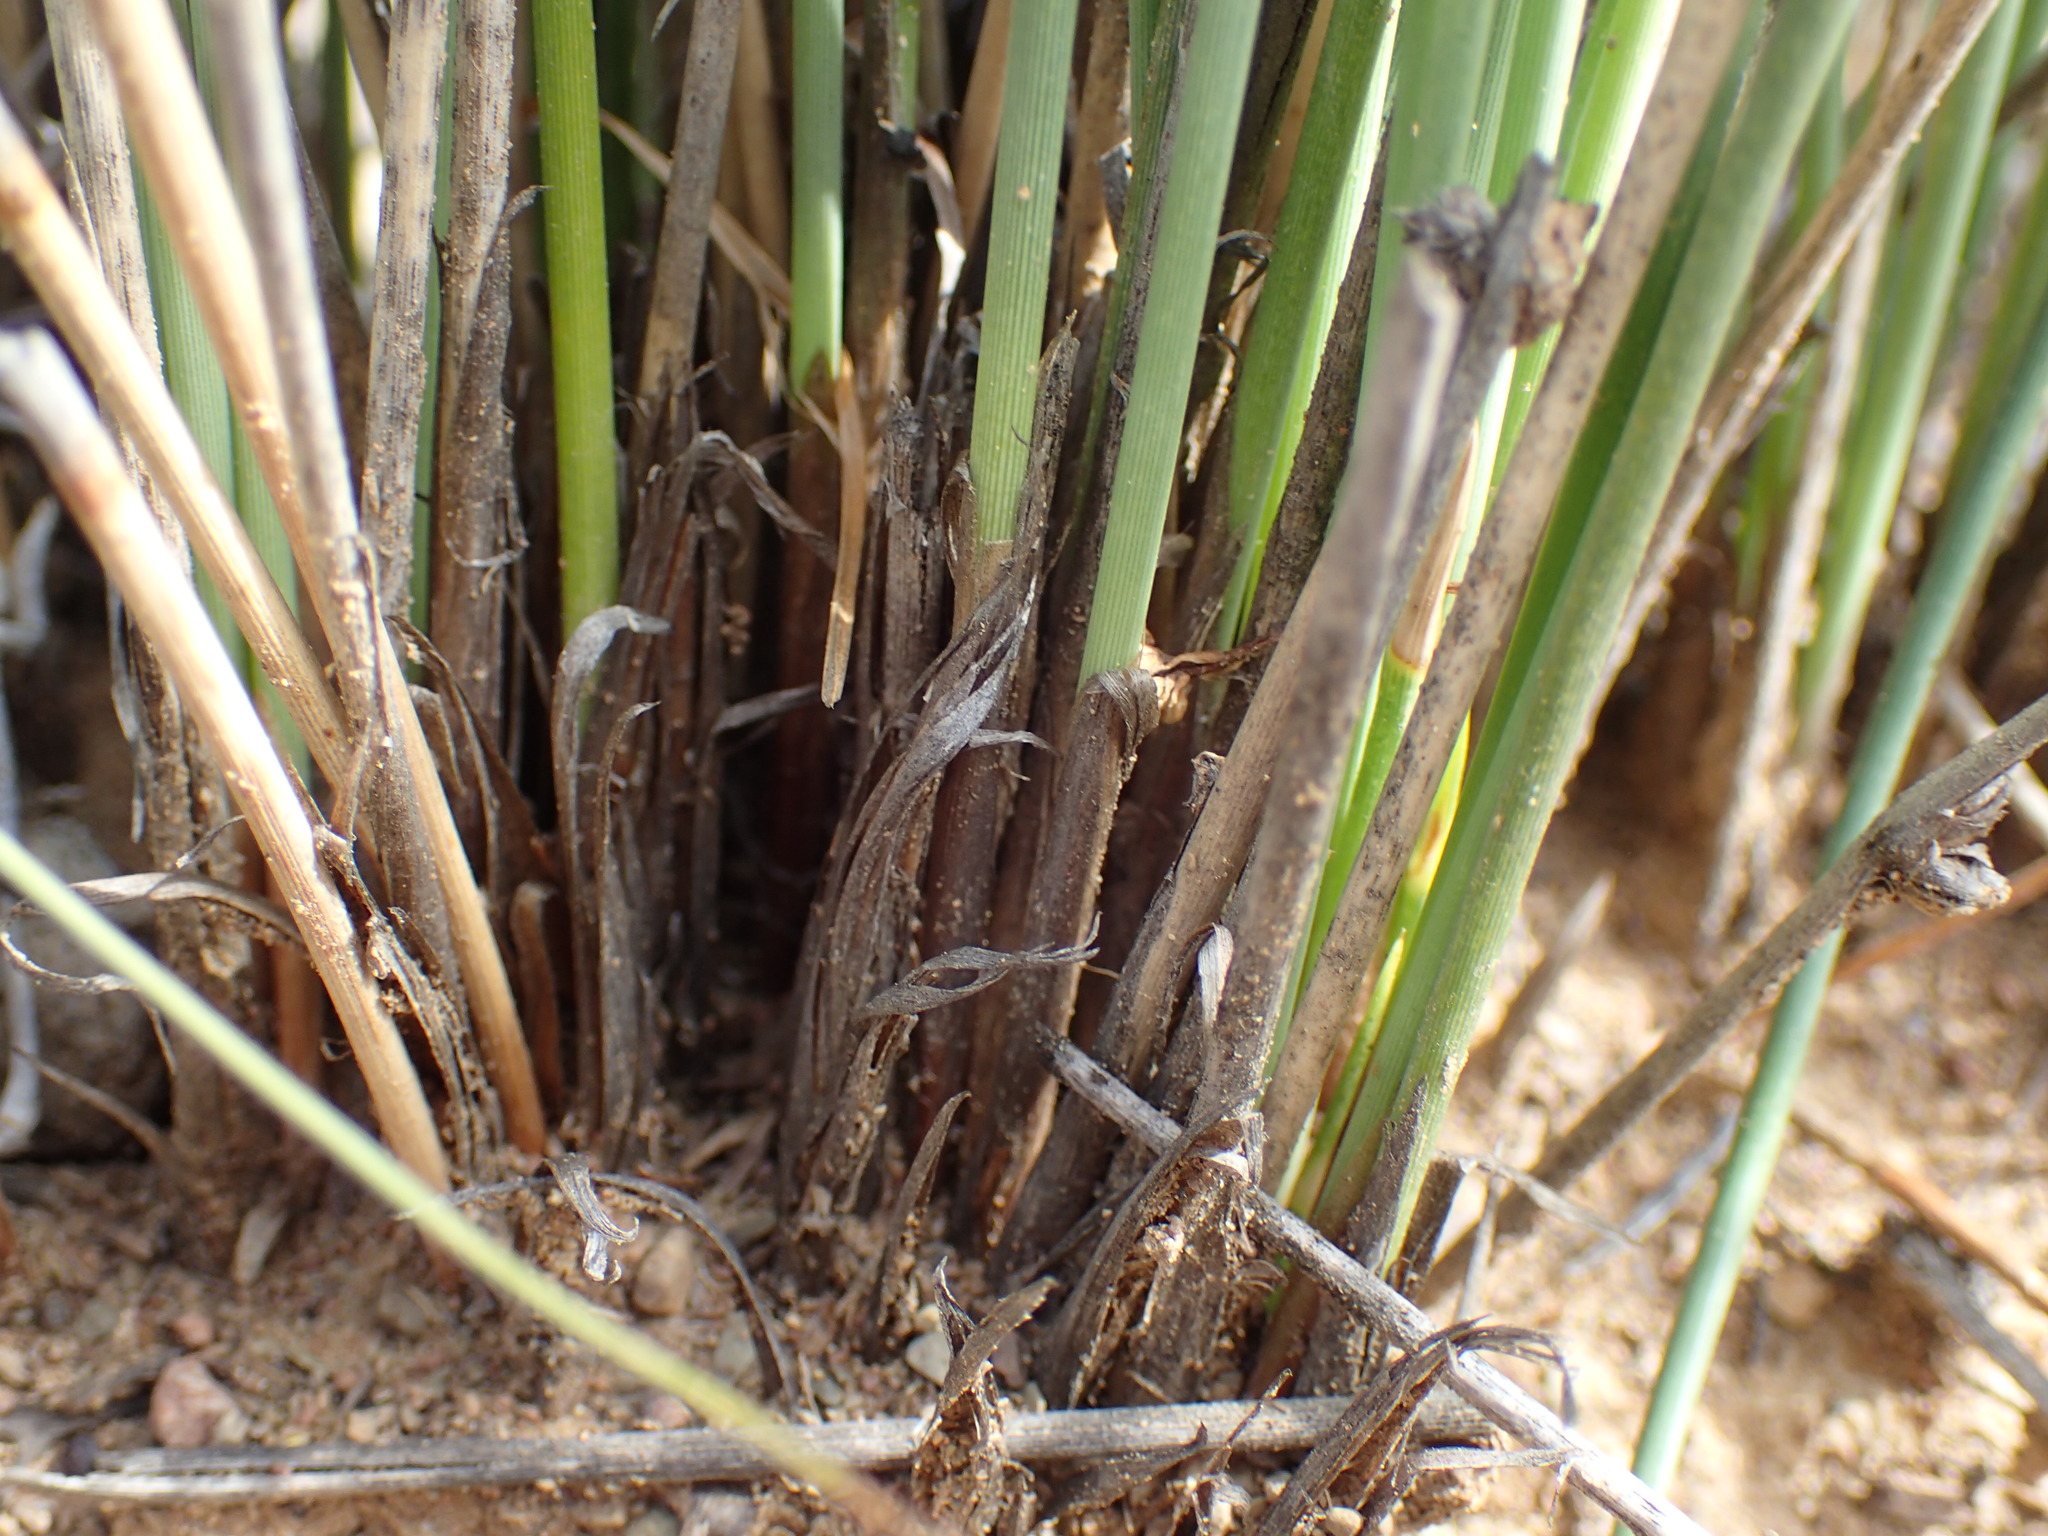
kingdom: Plantae
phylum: Tracheophyta
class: Liliopsida
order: Poales
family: Cyperaceae
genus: Afroscirpoides
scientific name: Afroscirpoides dioeca
